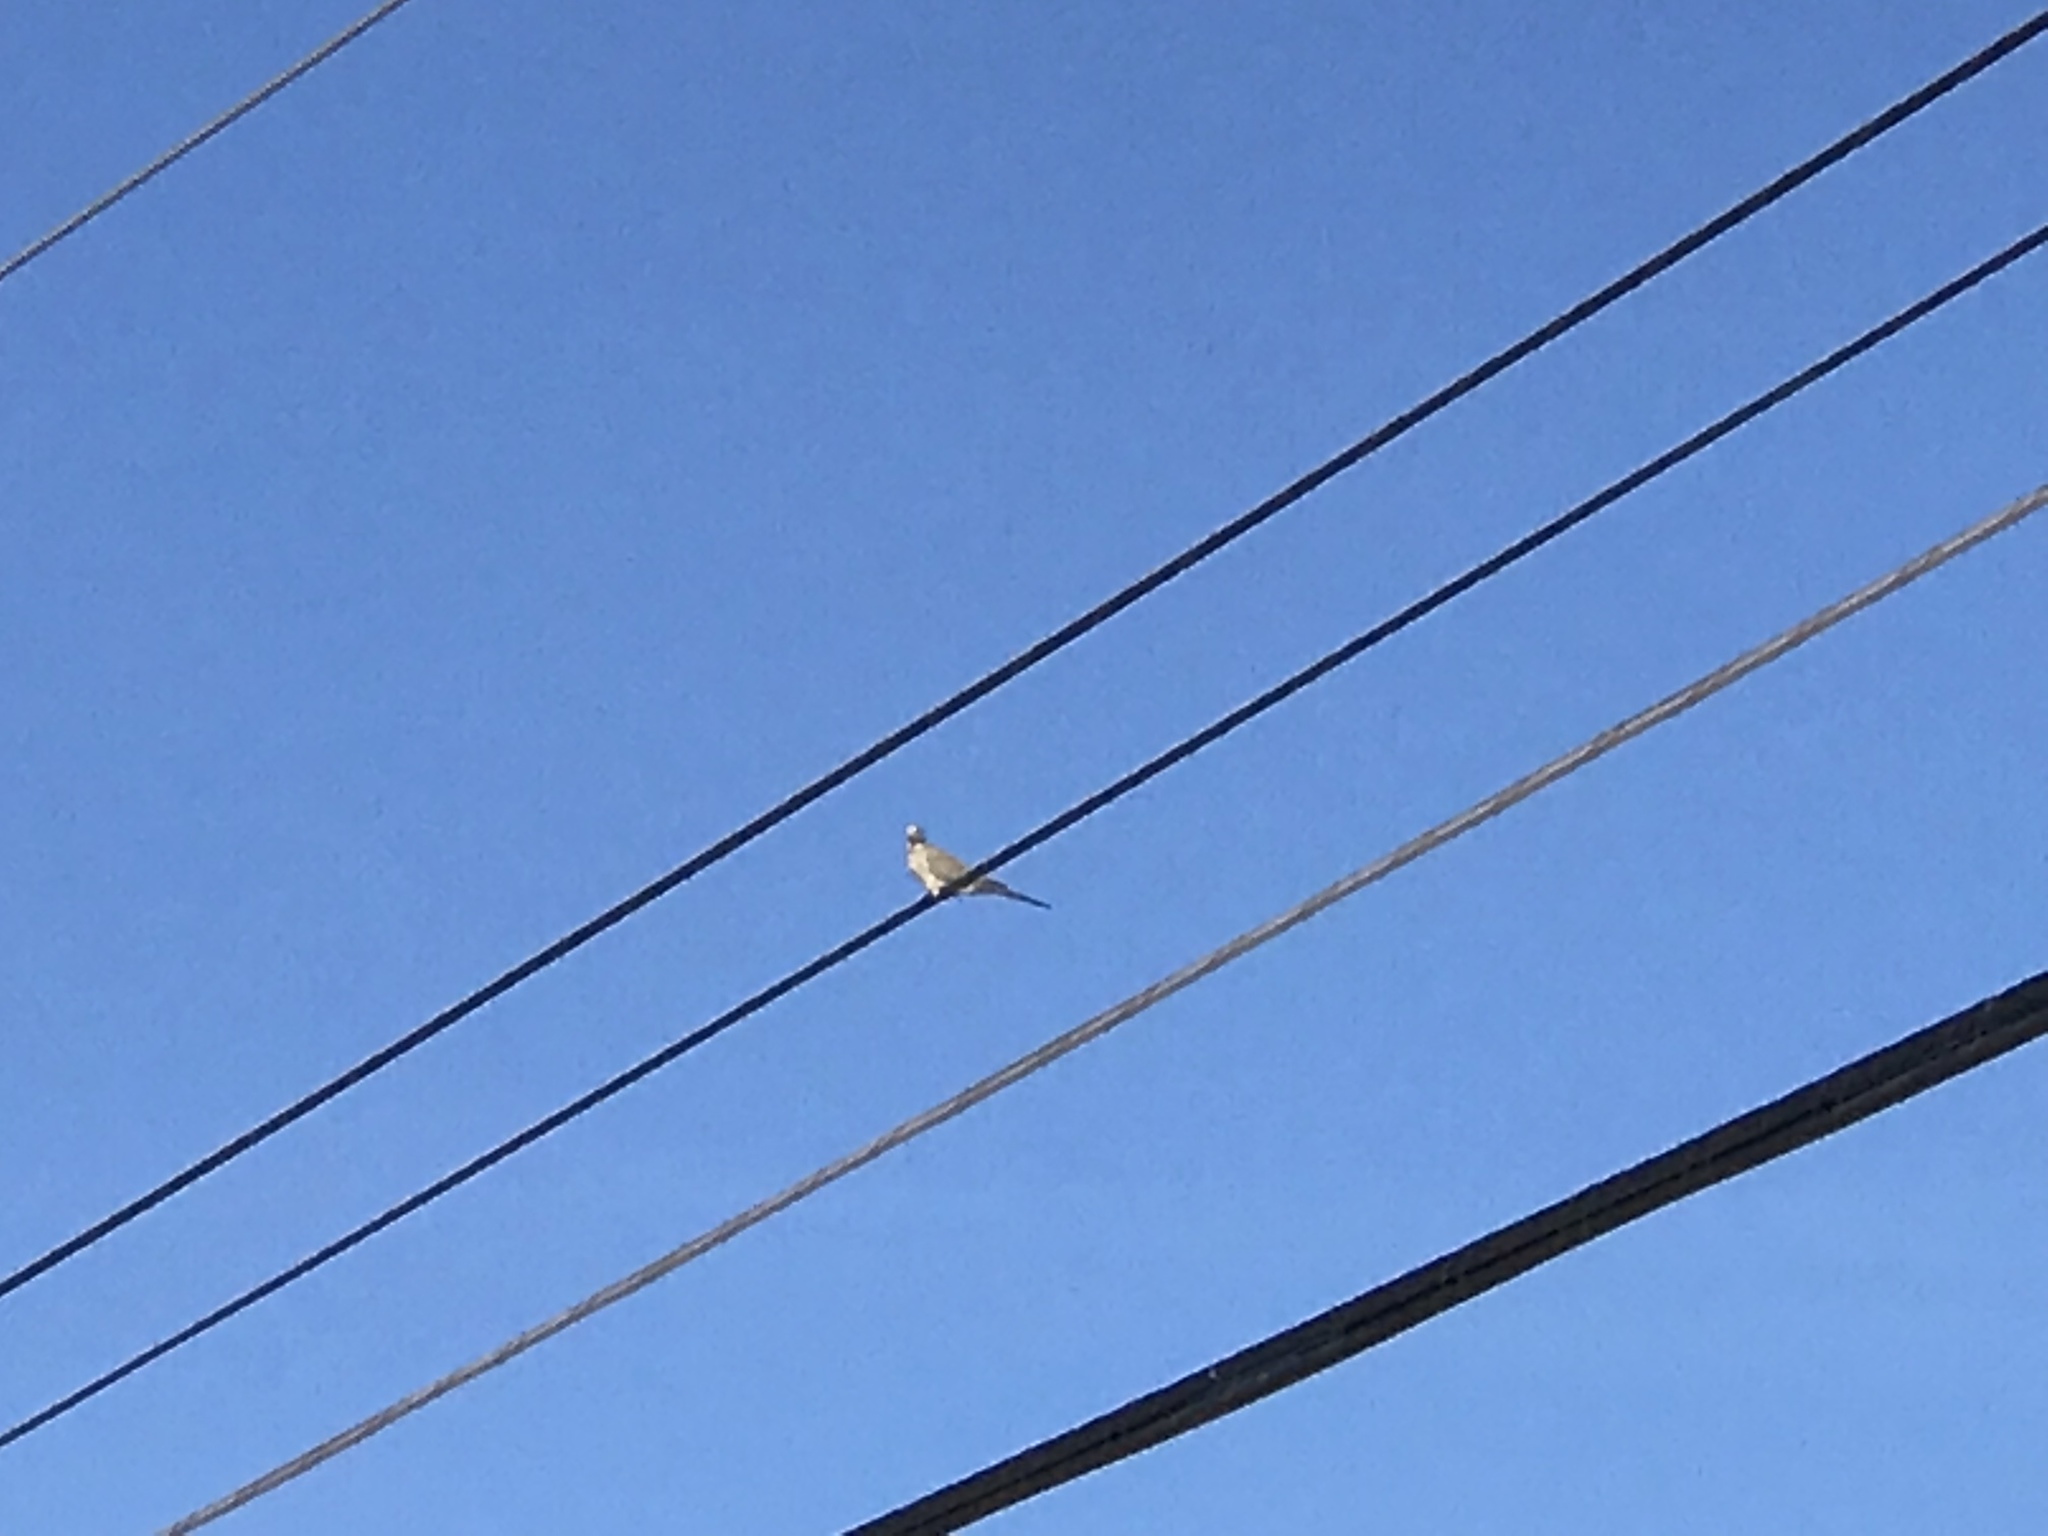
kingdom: Animalia
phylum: Chordata
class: Aves
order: Columbiformes
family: Columbidae
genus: Zenaida
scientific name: Zenaida macroura
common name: Mourning dove
